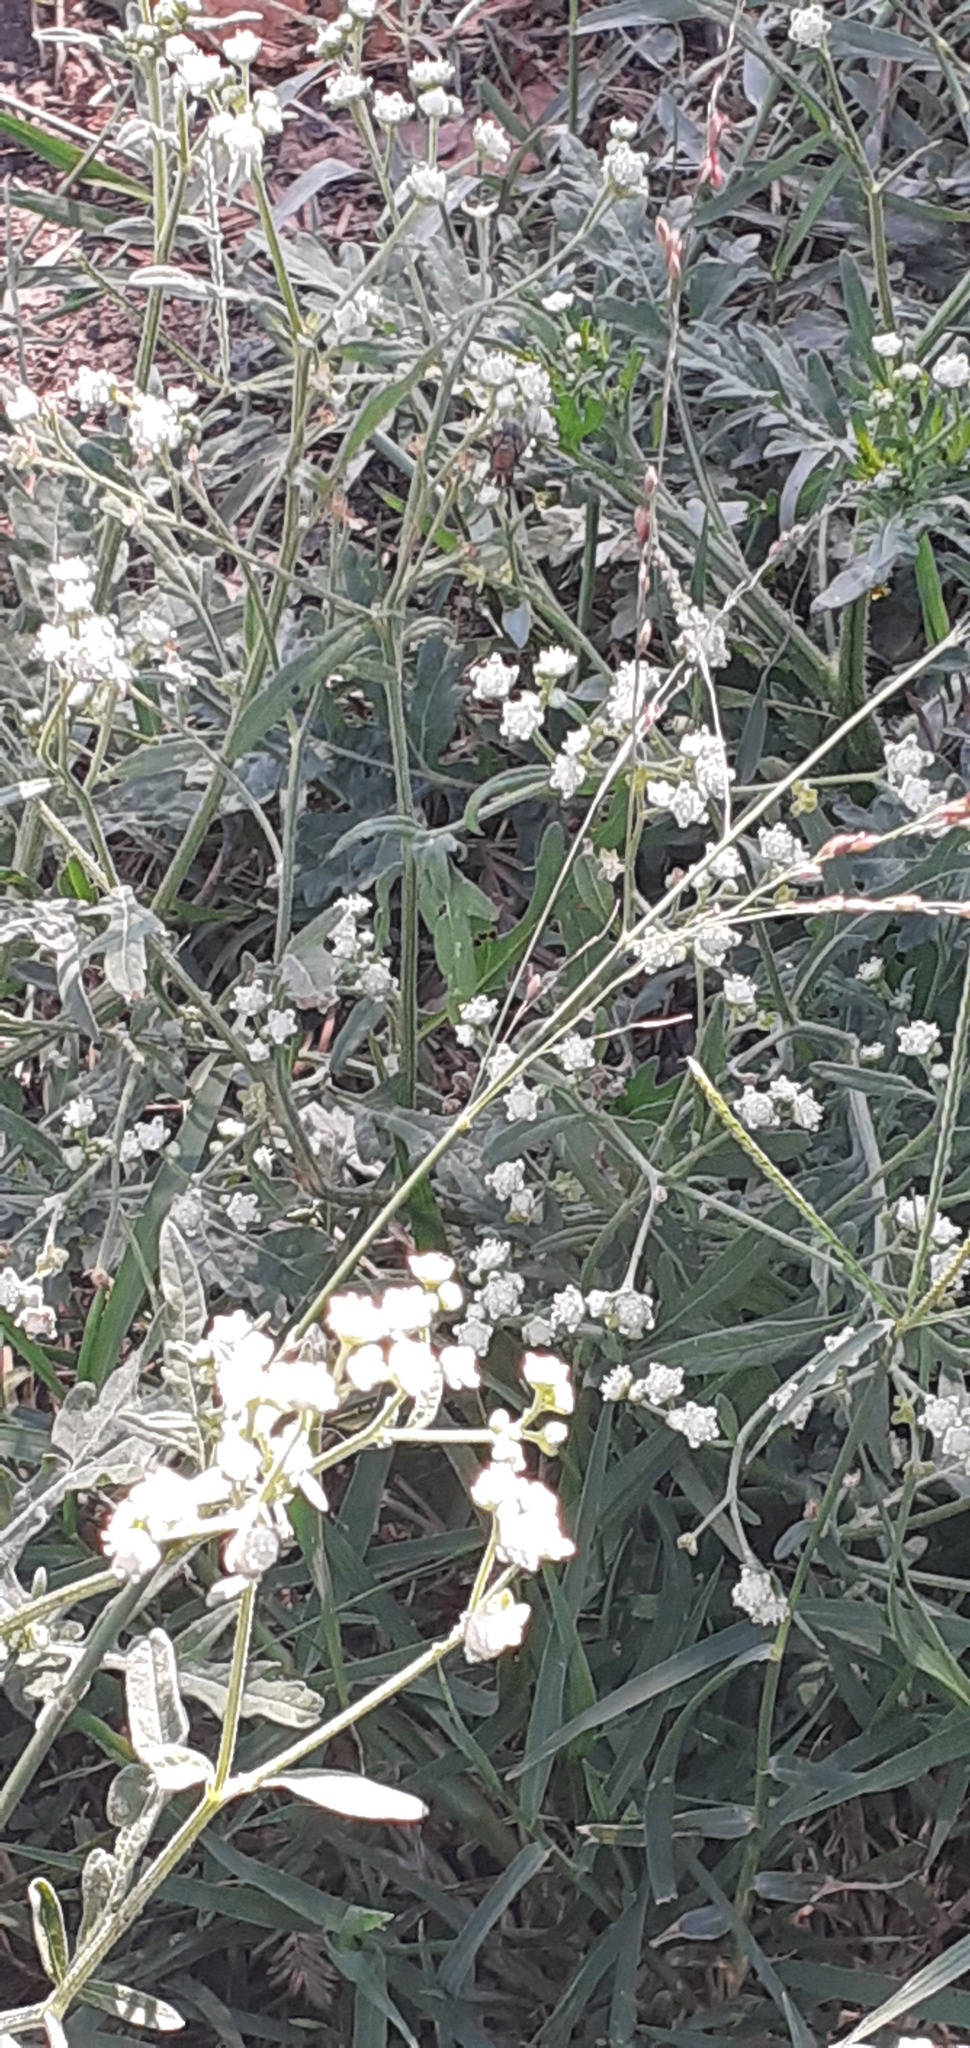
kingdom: Plantae
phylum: Tracheophyta
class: Magnoliopsida
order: Asterales
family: Asteraceae
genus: Parthenium
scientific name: Parthenium hysterophorus
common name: Santa maria feverfew
